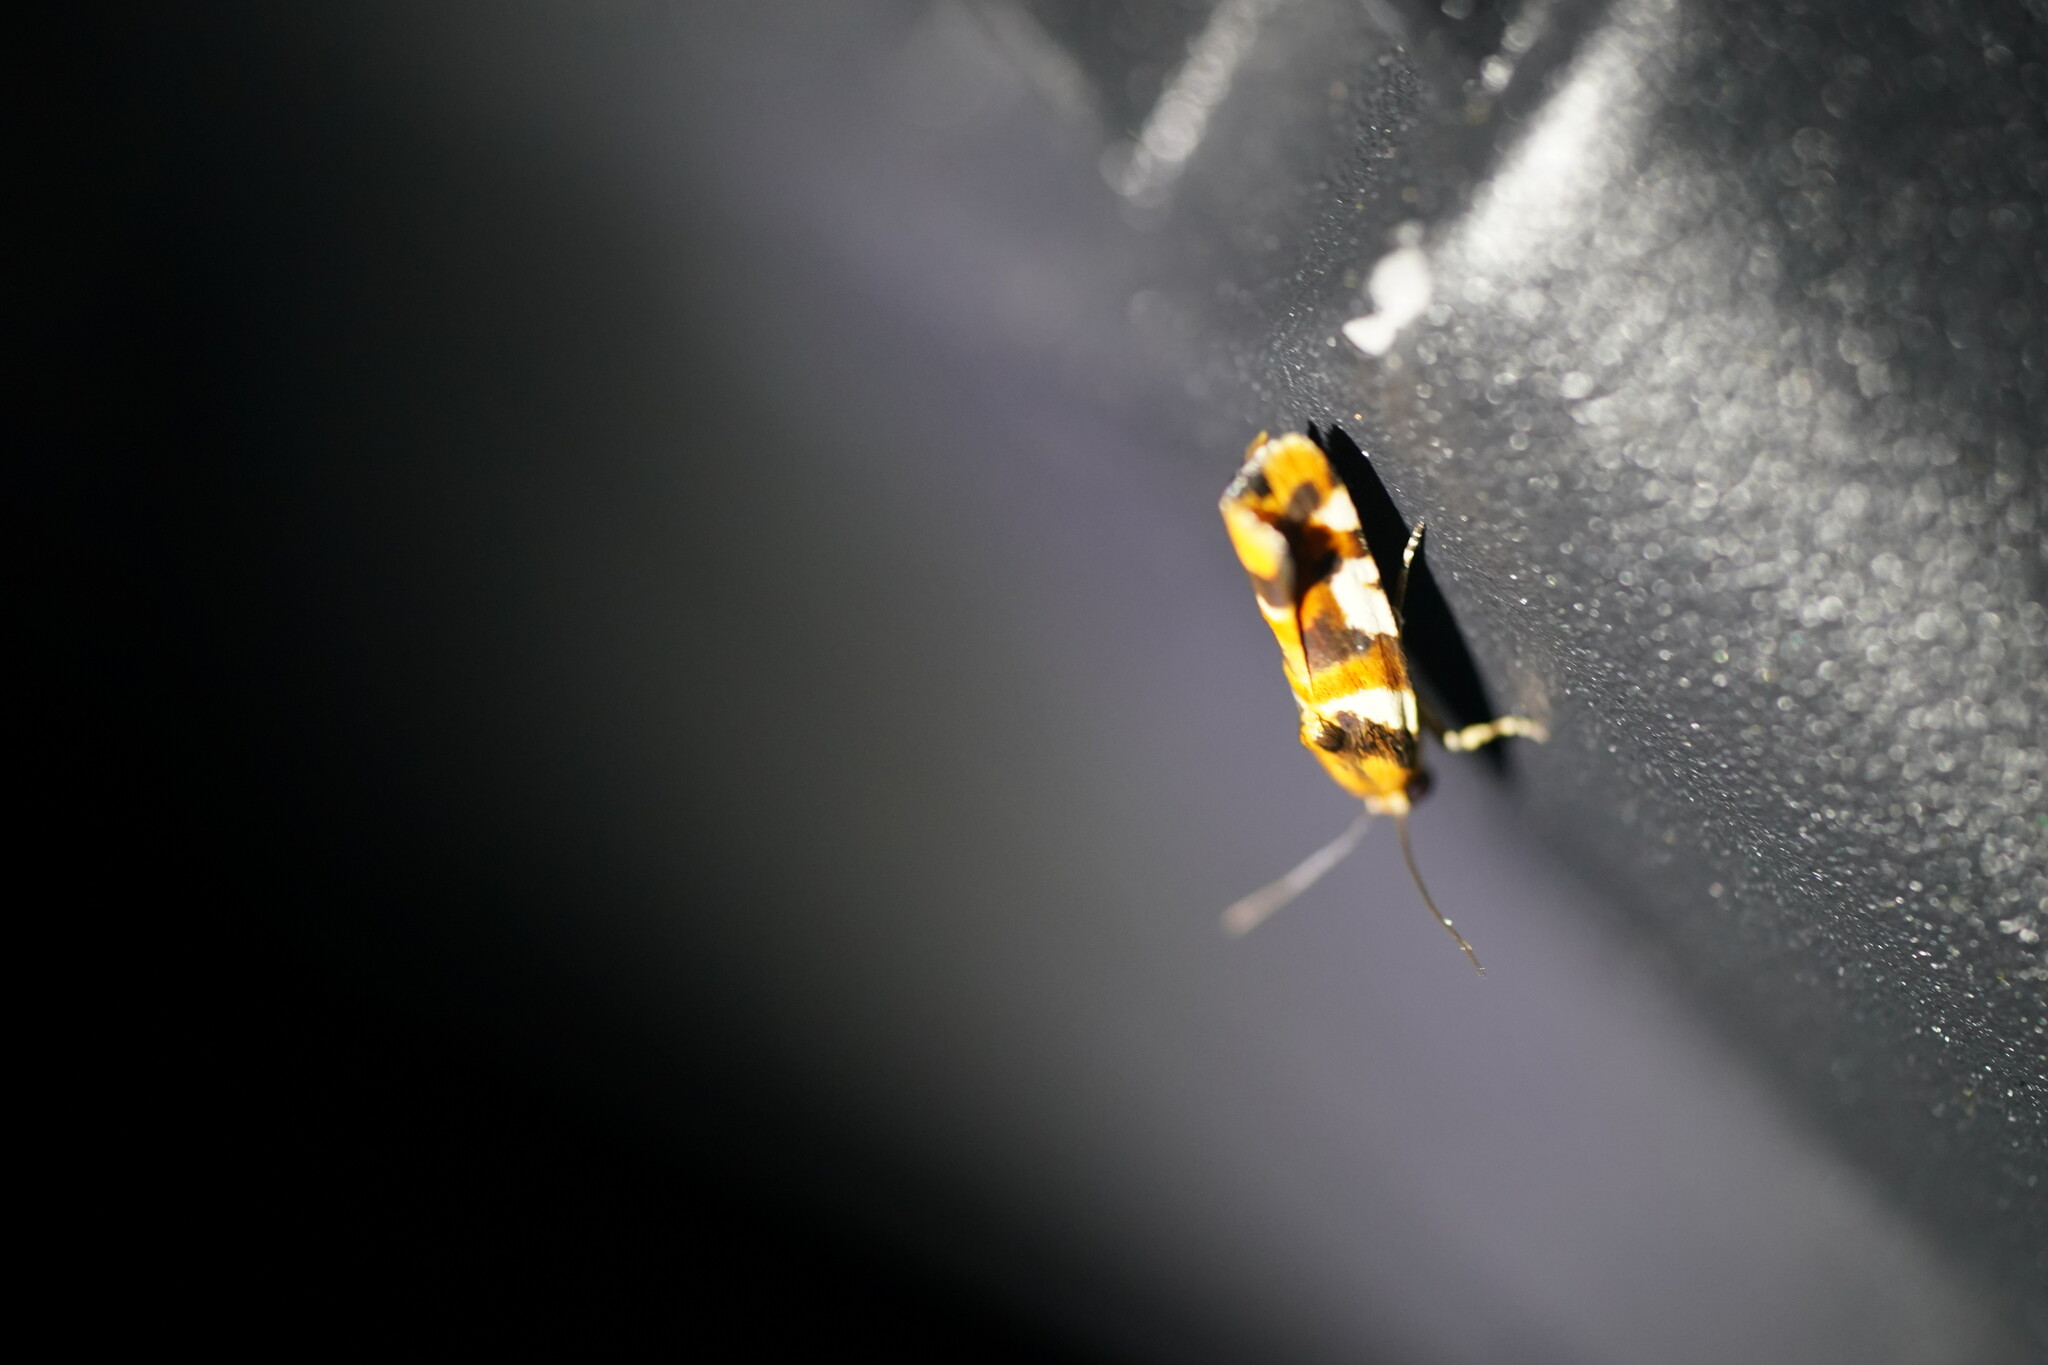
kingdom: Animalia
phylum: Arthropoda
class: Insecta
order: Lepidoptera
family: Noctuidae
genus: Acontia
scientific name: Acontia dama
